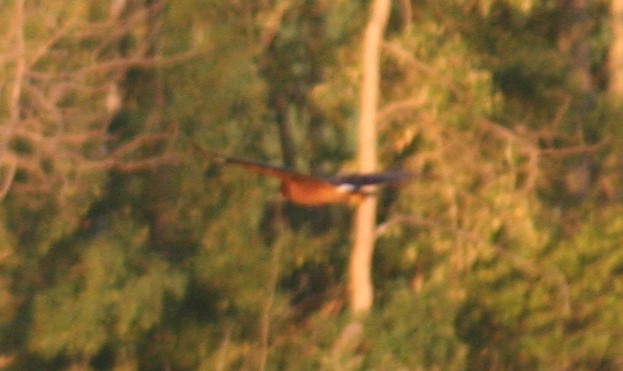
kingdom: Animalia
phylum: Chordata
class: Aves
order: Accipitriformes
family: Accipitridae
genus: Circus
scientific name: Circus cyaneus
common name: Hen harrier
